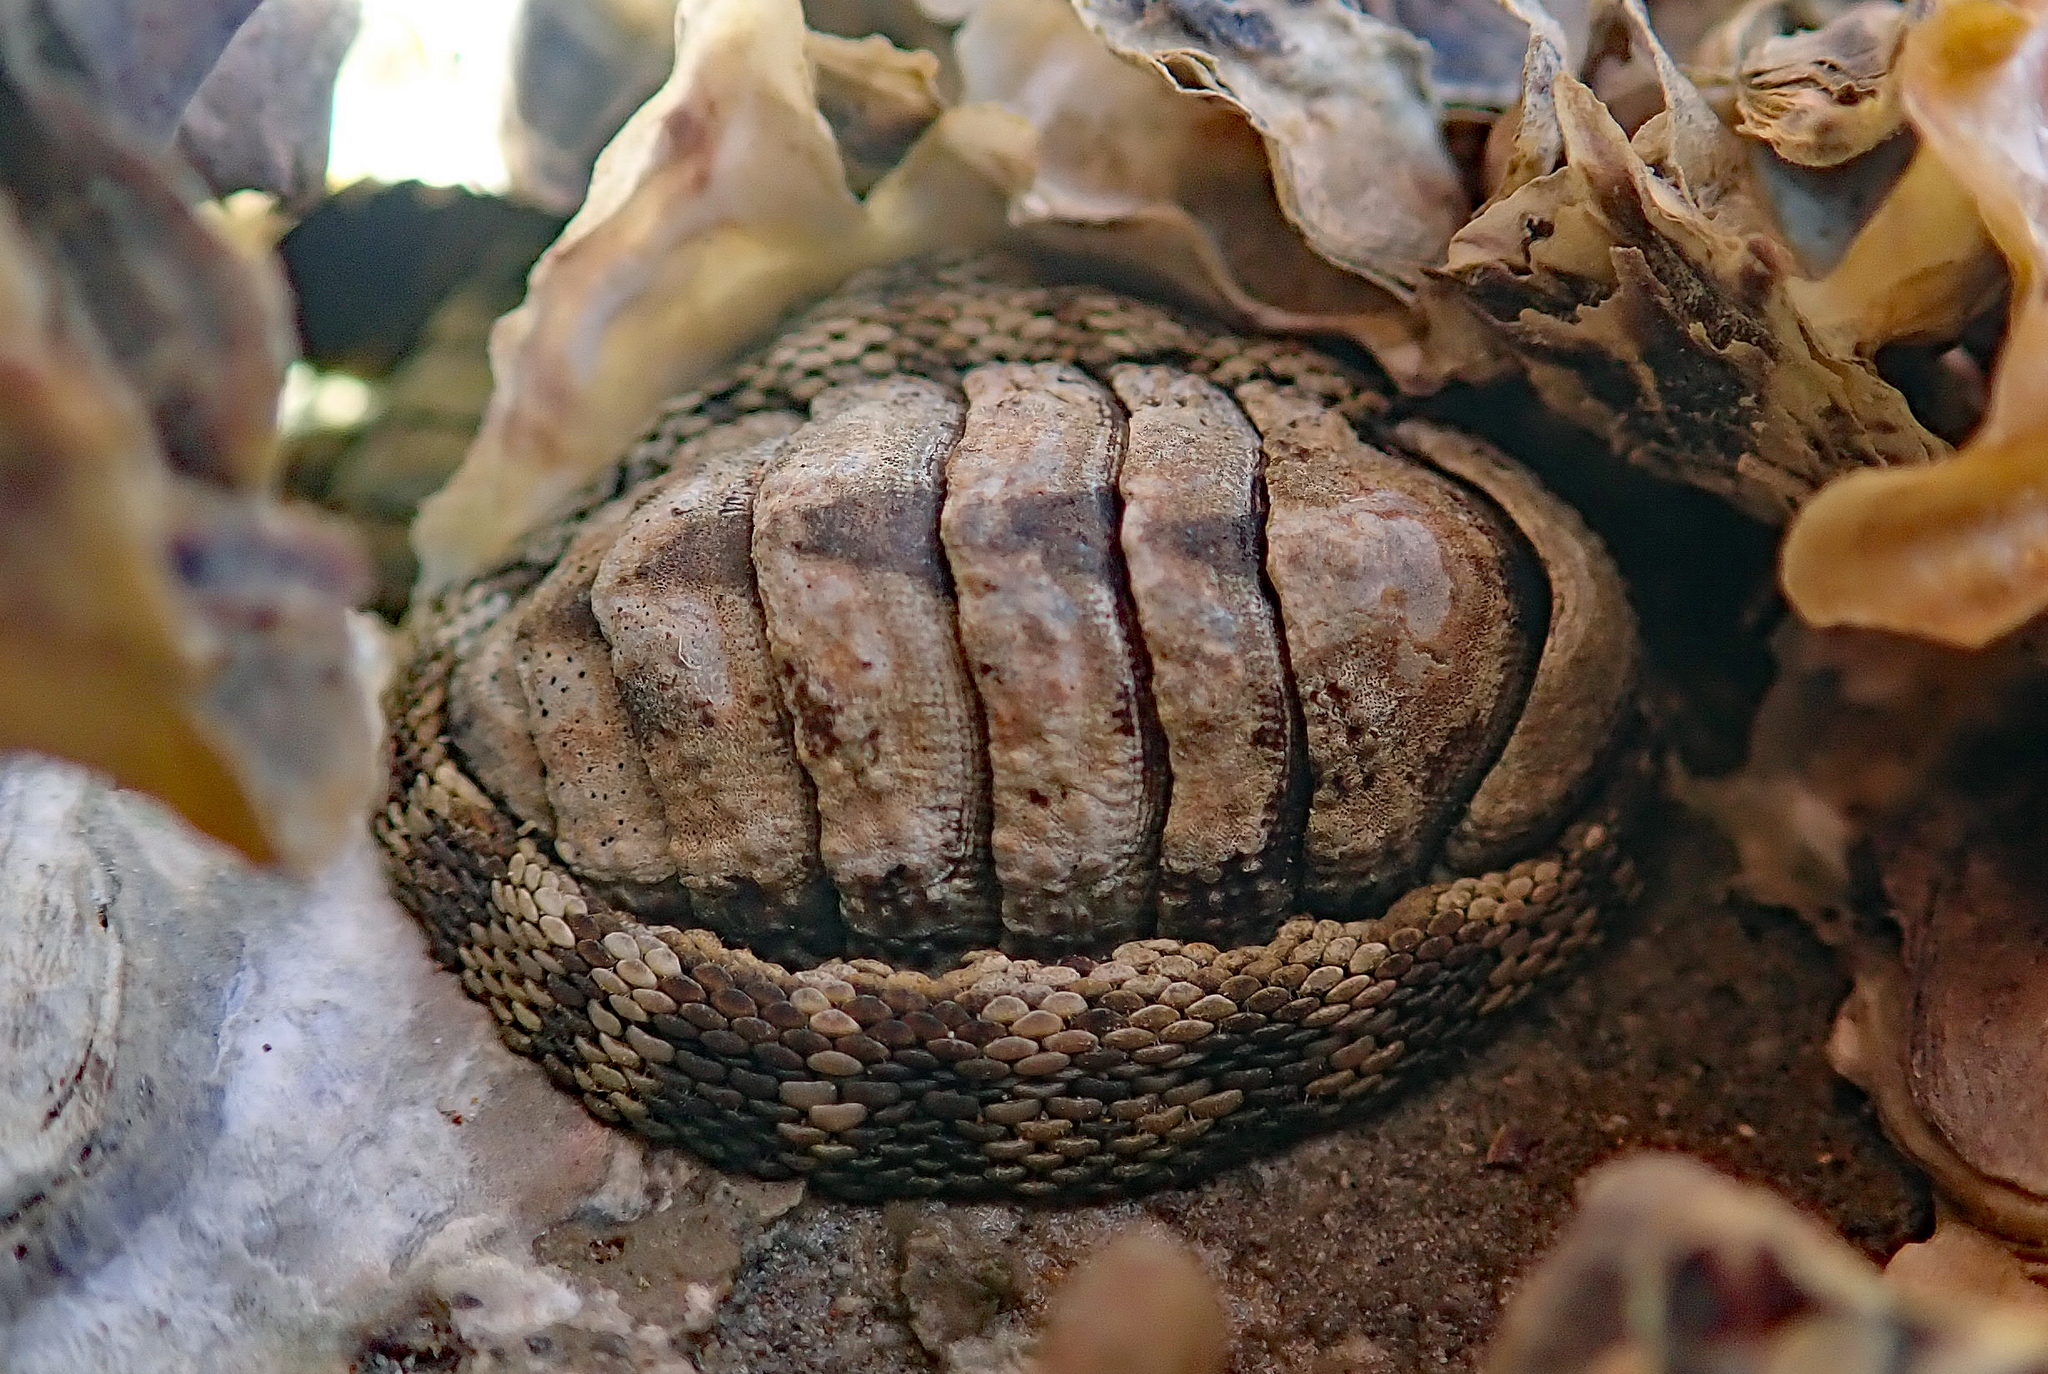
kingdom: Animalia
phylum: Mollusca
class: Polyplacophora
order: Chitonida
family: Chitonidae
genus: Sypharochiton
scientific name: Sypharochiton pelliserpentis
